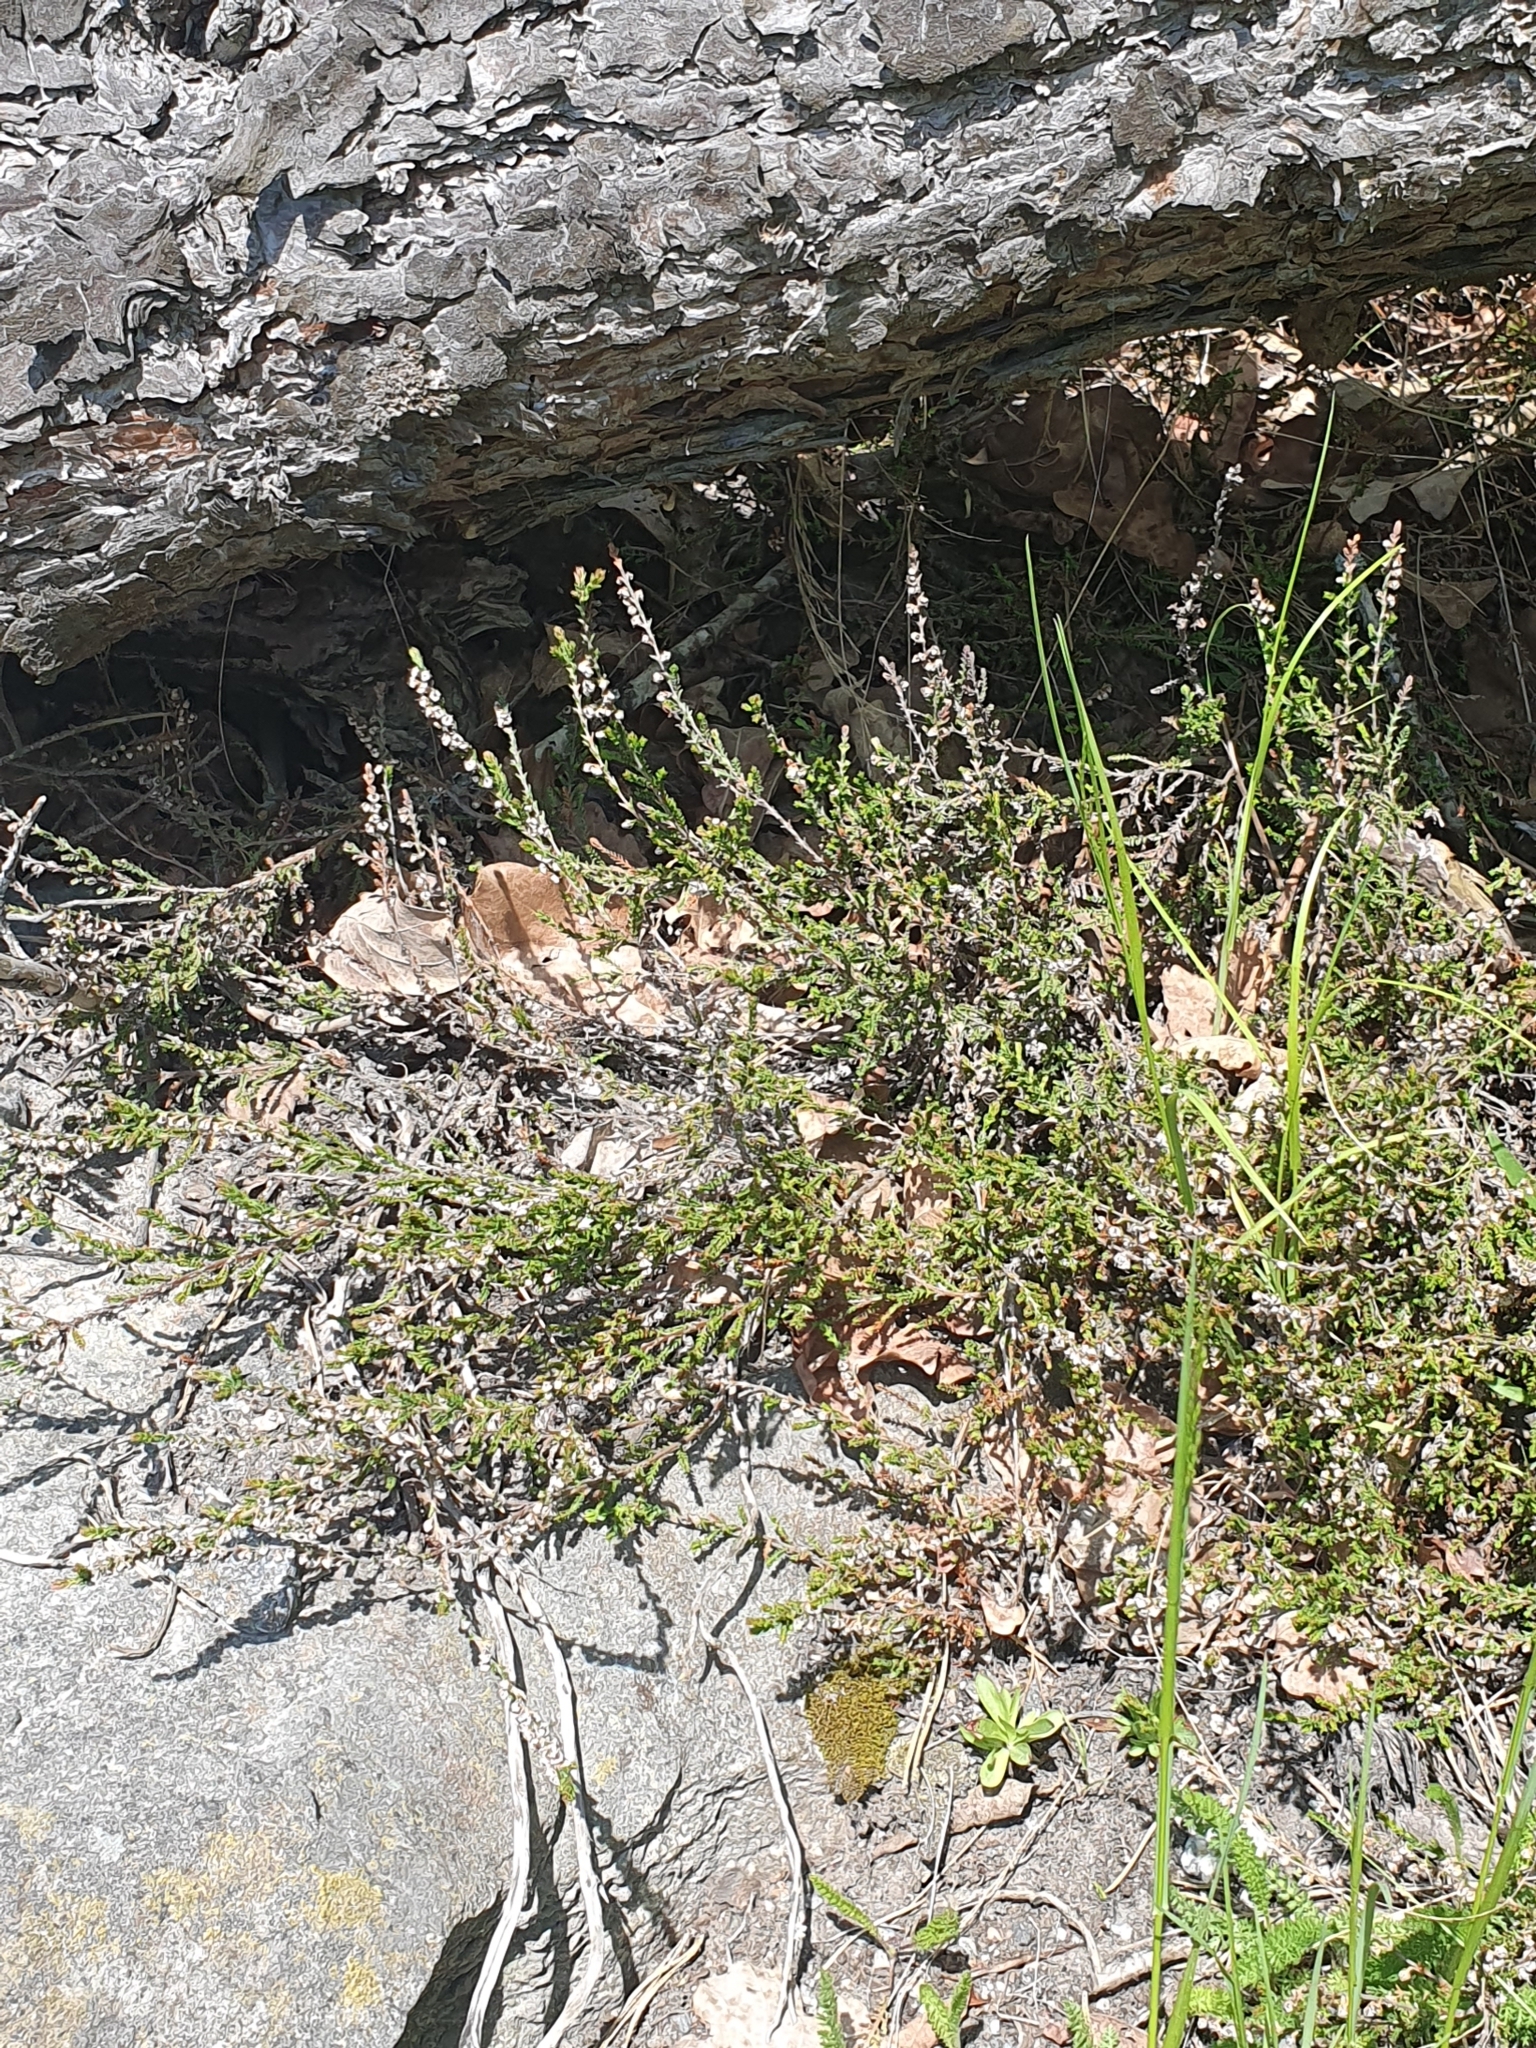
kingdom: Plantae
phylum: Tracheophyta
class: Magnoliopsida
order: Ericales
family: Ericaceae
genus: Calluna
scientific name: Calluna vulgaris
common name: Heather
